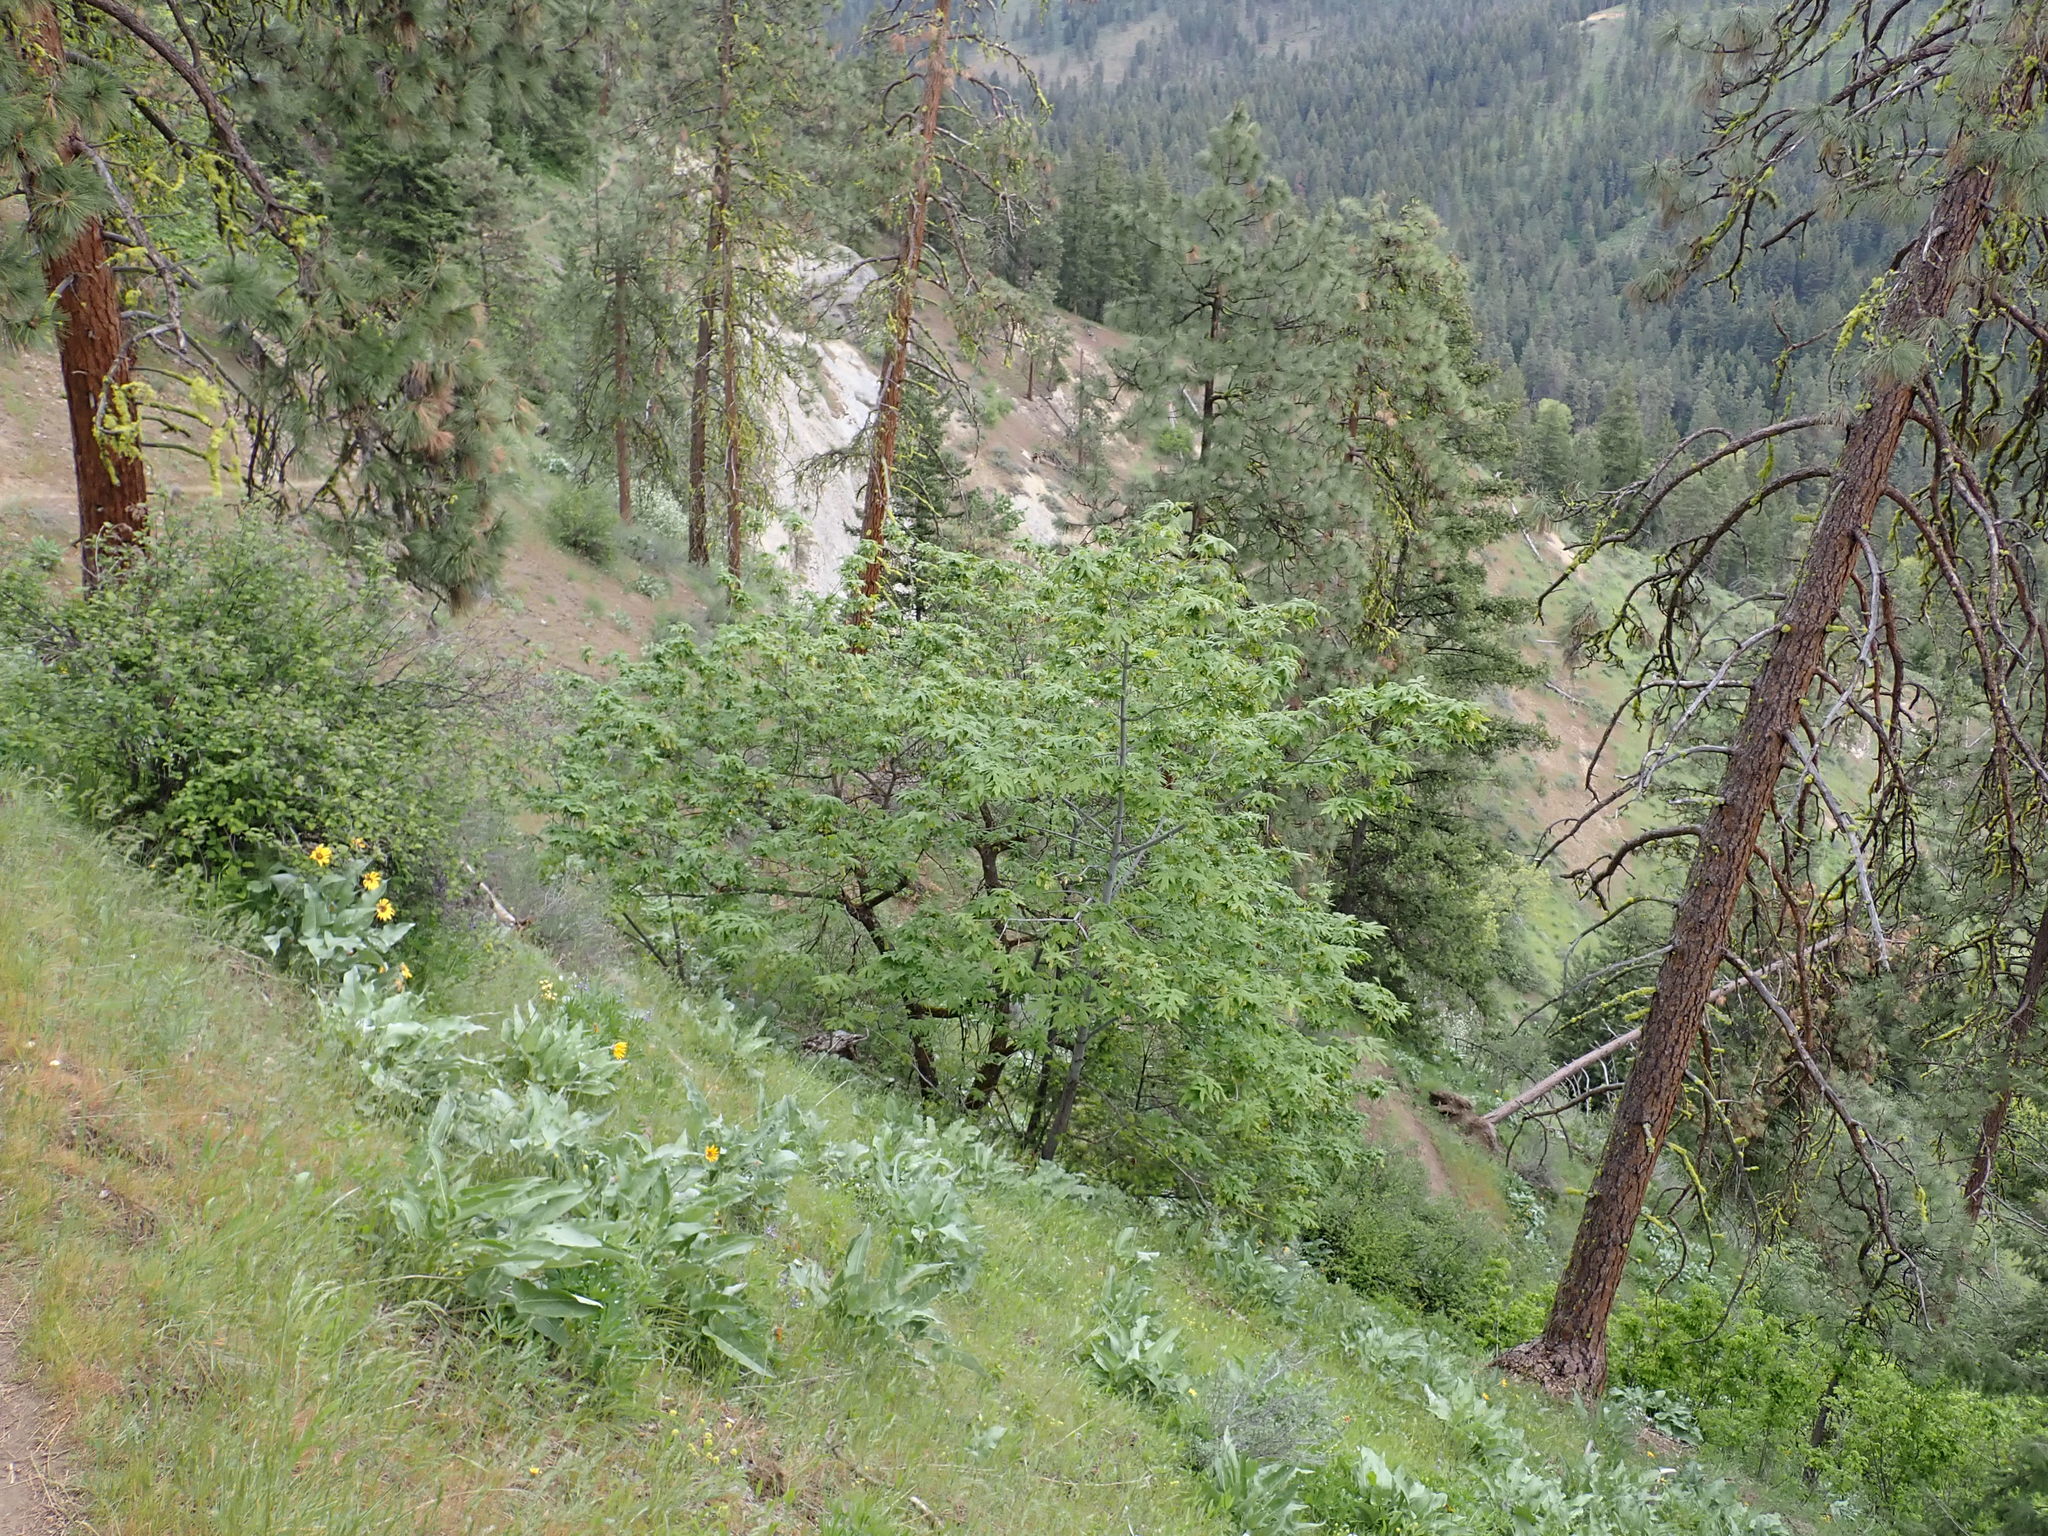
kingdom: Plantae
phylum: Tracheophyta
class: Magnoliopsida
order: Sapindales
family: Sapindaceae
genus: Acer
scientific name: Acer macrophyllum
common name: Oregon maple
